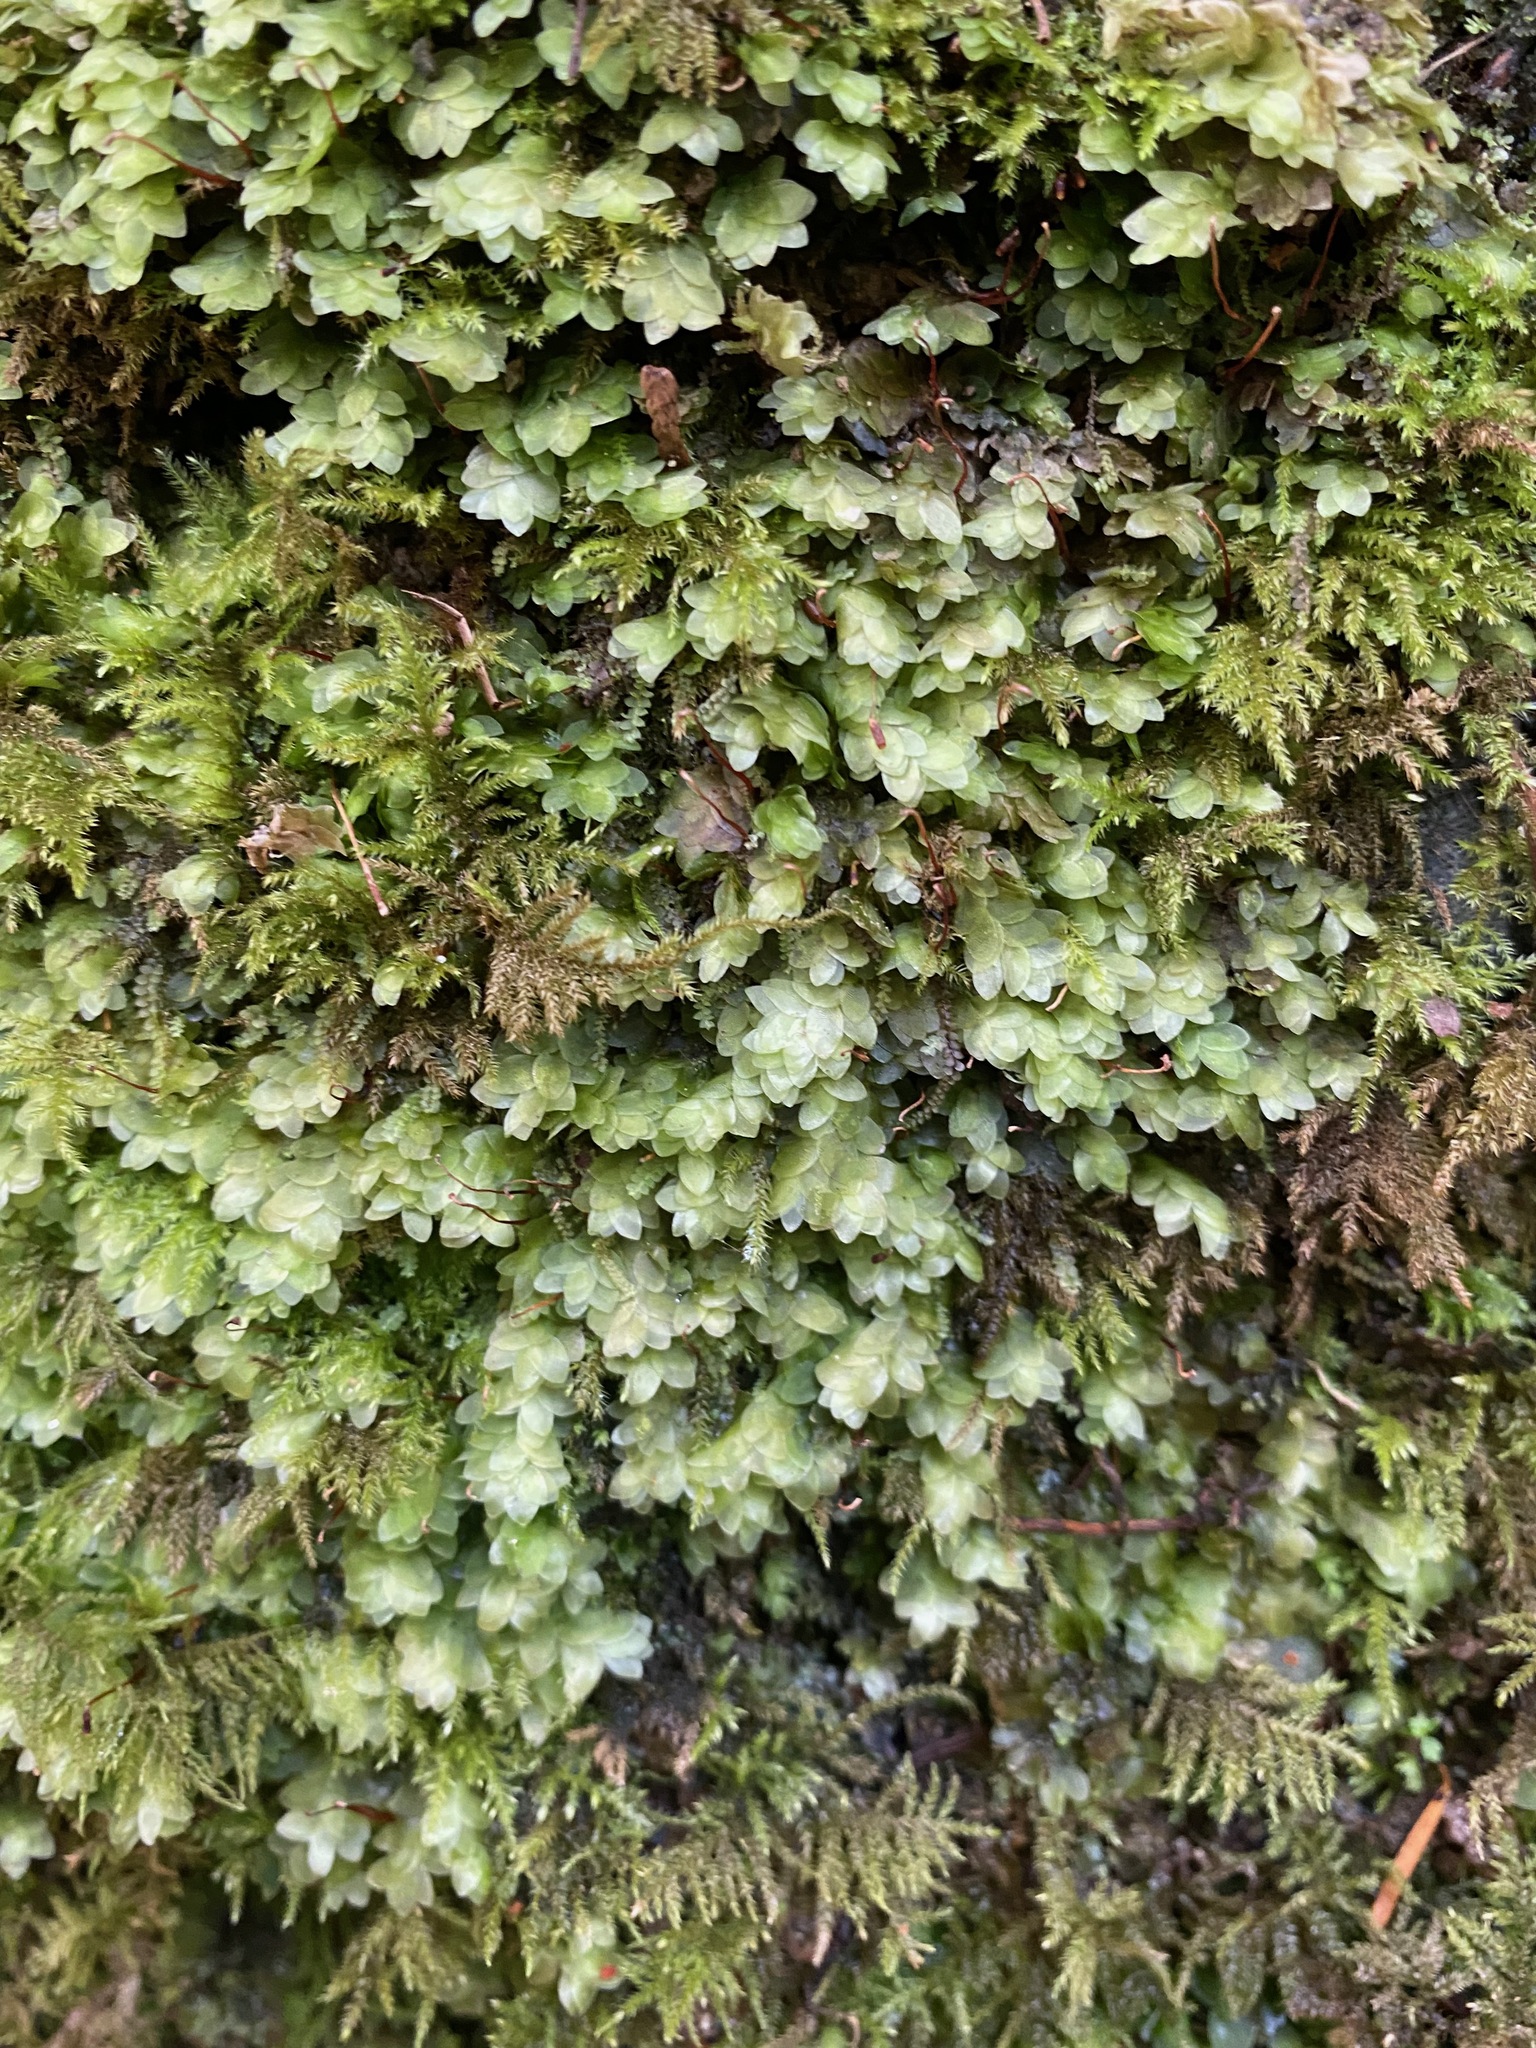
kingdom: Plantae
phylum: Bryophyta
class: Bryopsida
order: Hookeriales
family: Hookeriaceae
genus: Hookeria
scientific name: Hookeria lucens
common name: Shining hookeria
